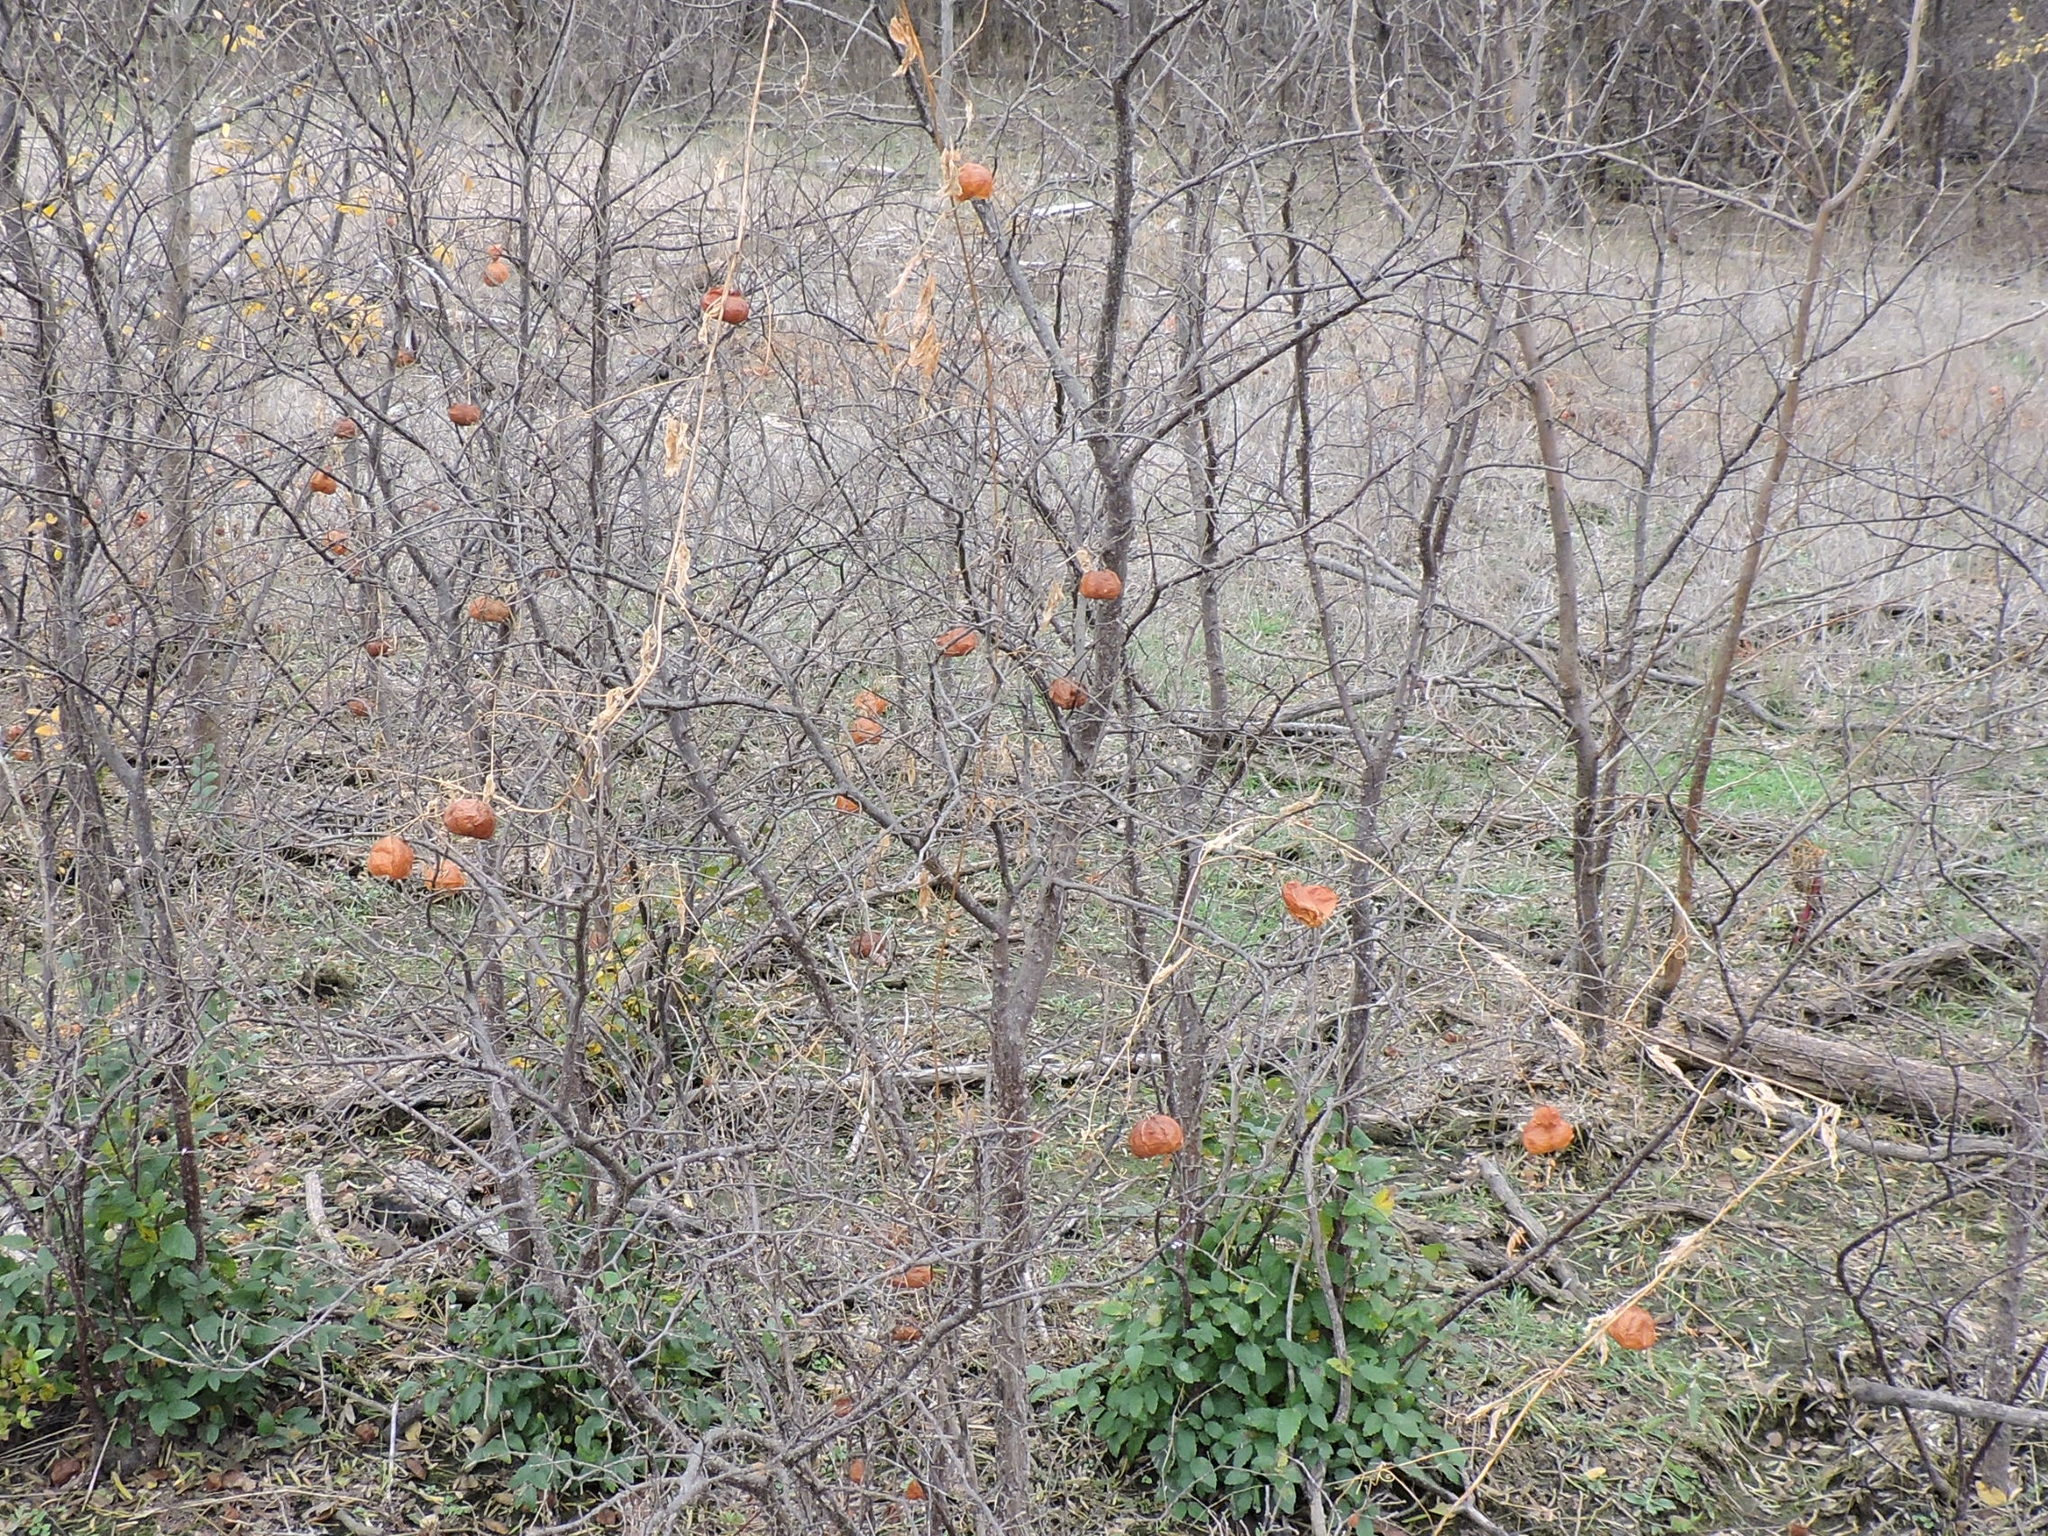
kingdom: Plantae
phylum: Tracheophyta
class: Magnoliopsida
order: Sapindales
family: Sapindaceae
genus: Cardiospermum
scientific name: Cardiospermum halicacabum
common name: Balloon vine
